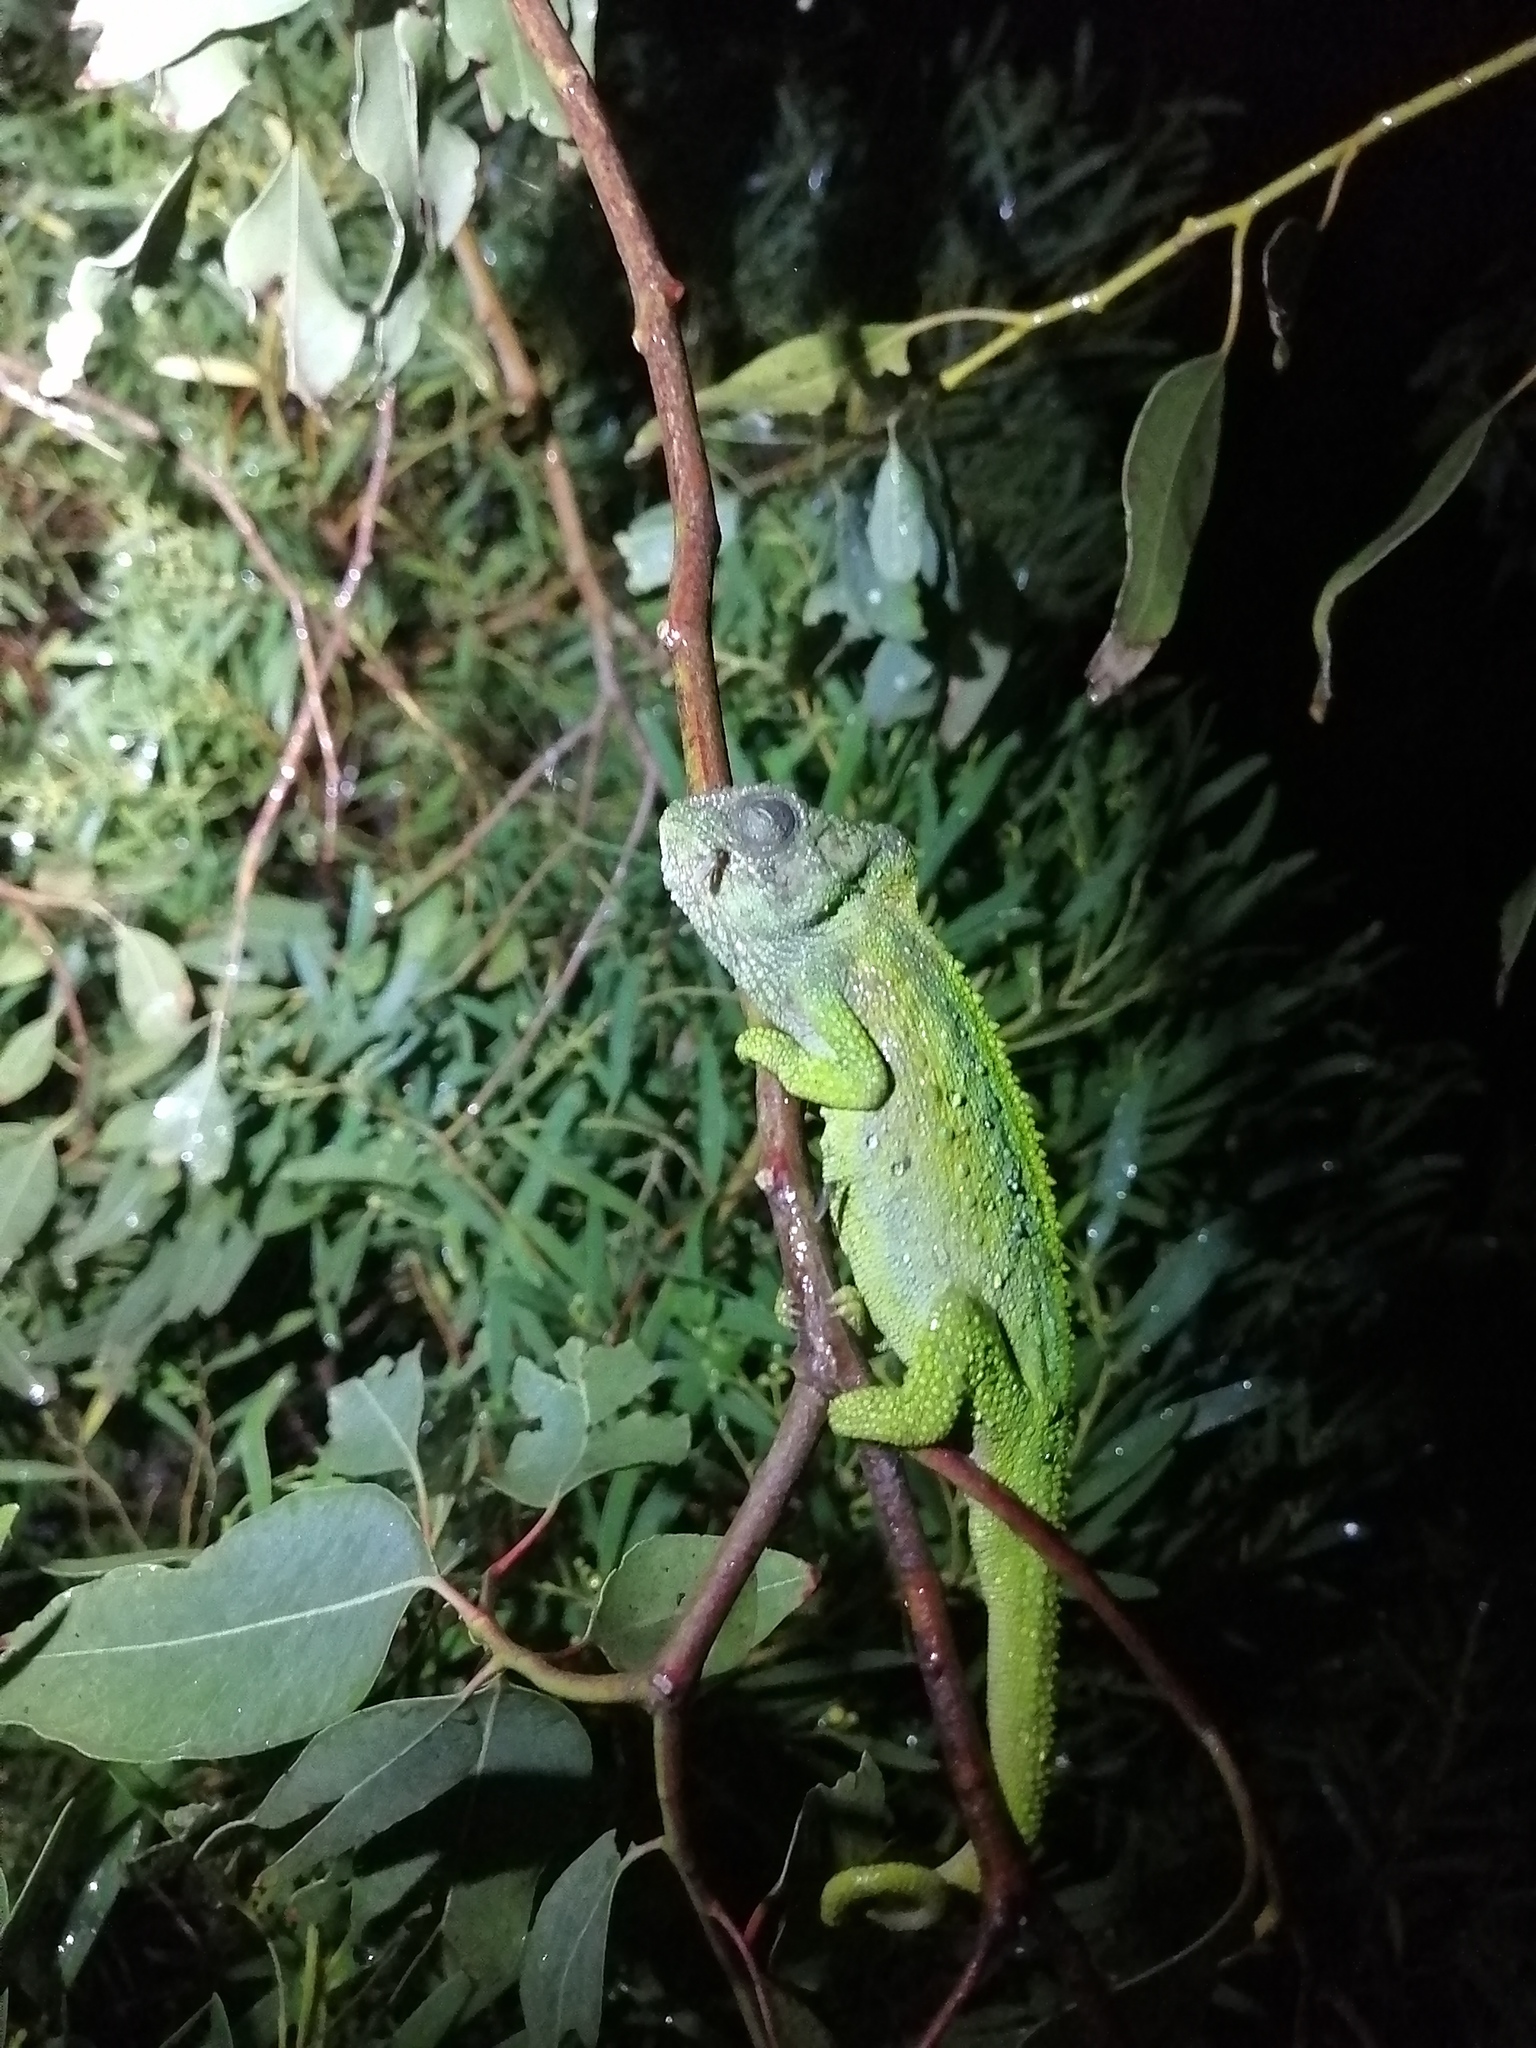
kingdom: Animalia
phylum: Chordata
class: Squamata
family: Chamaeleonidae
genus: Bradypodion
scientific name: Bradypodion pumilum
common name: Cape dwarf chameleon
